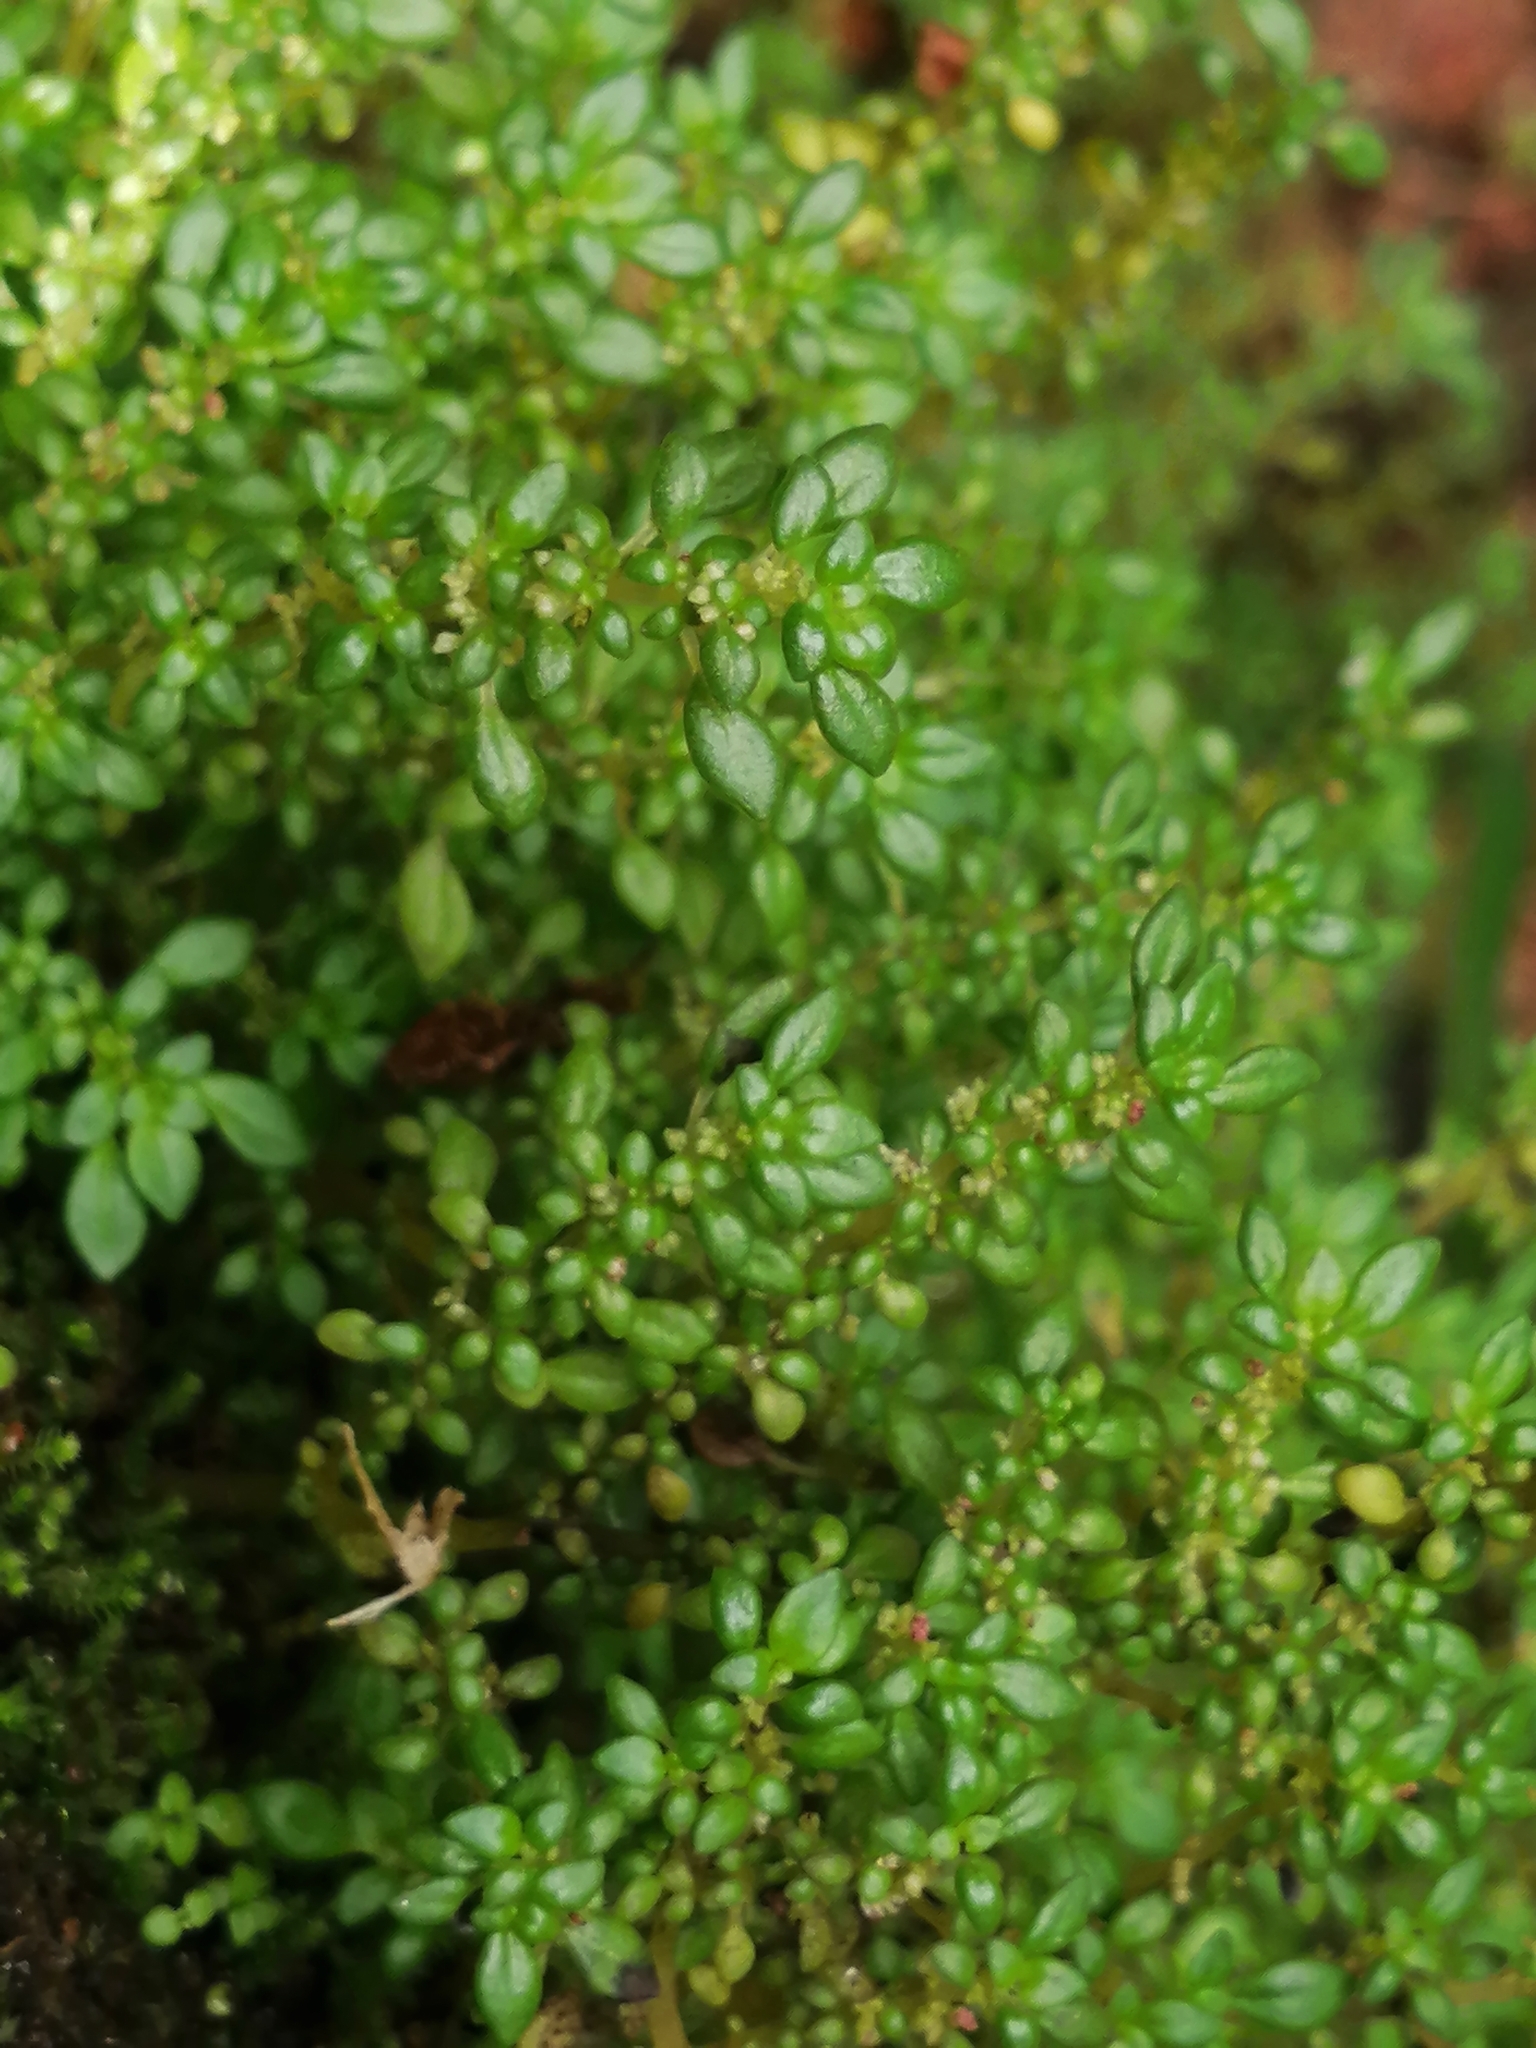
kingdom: Plantae
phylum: Tracheophyta
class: Magnoliopsida
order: Rosales
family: Urticaceae
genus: Pilea
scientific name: Pilea microphylla
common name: Artillery-plant
